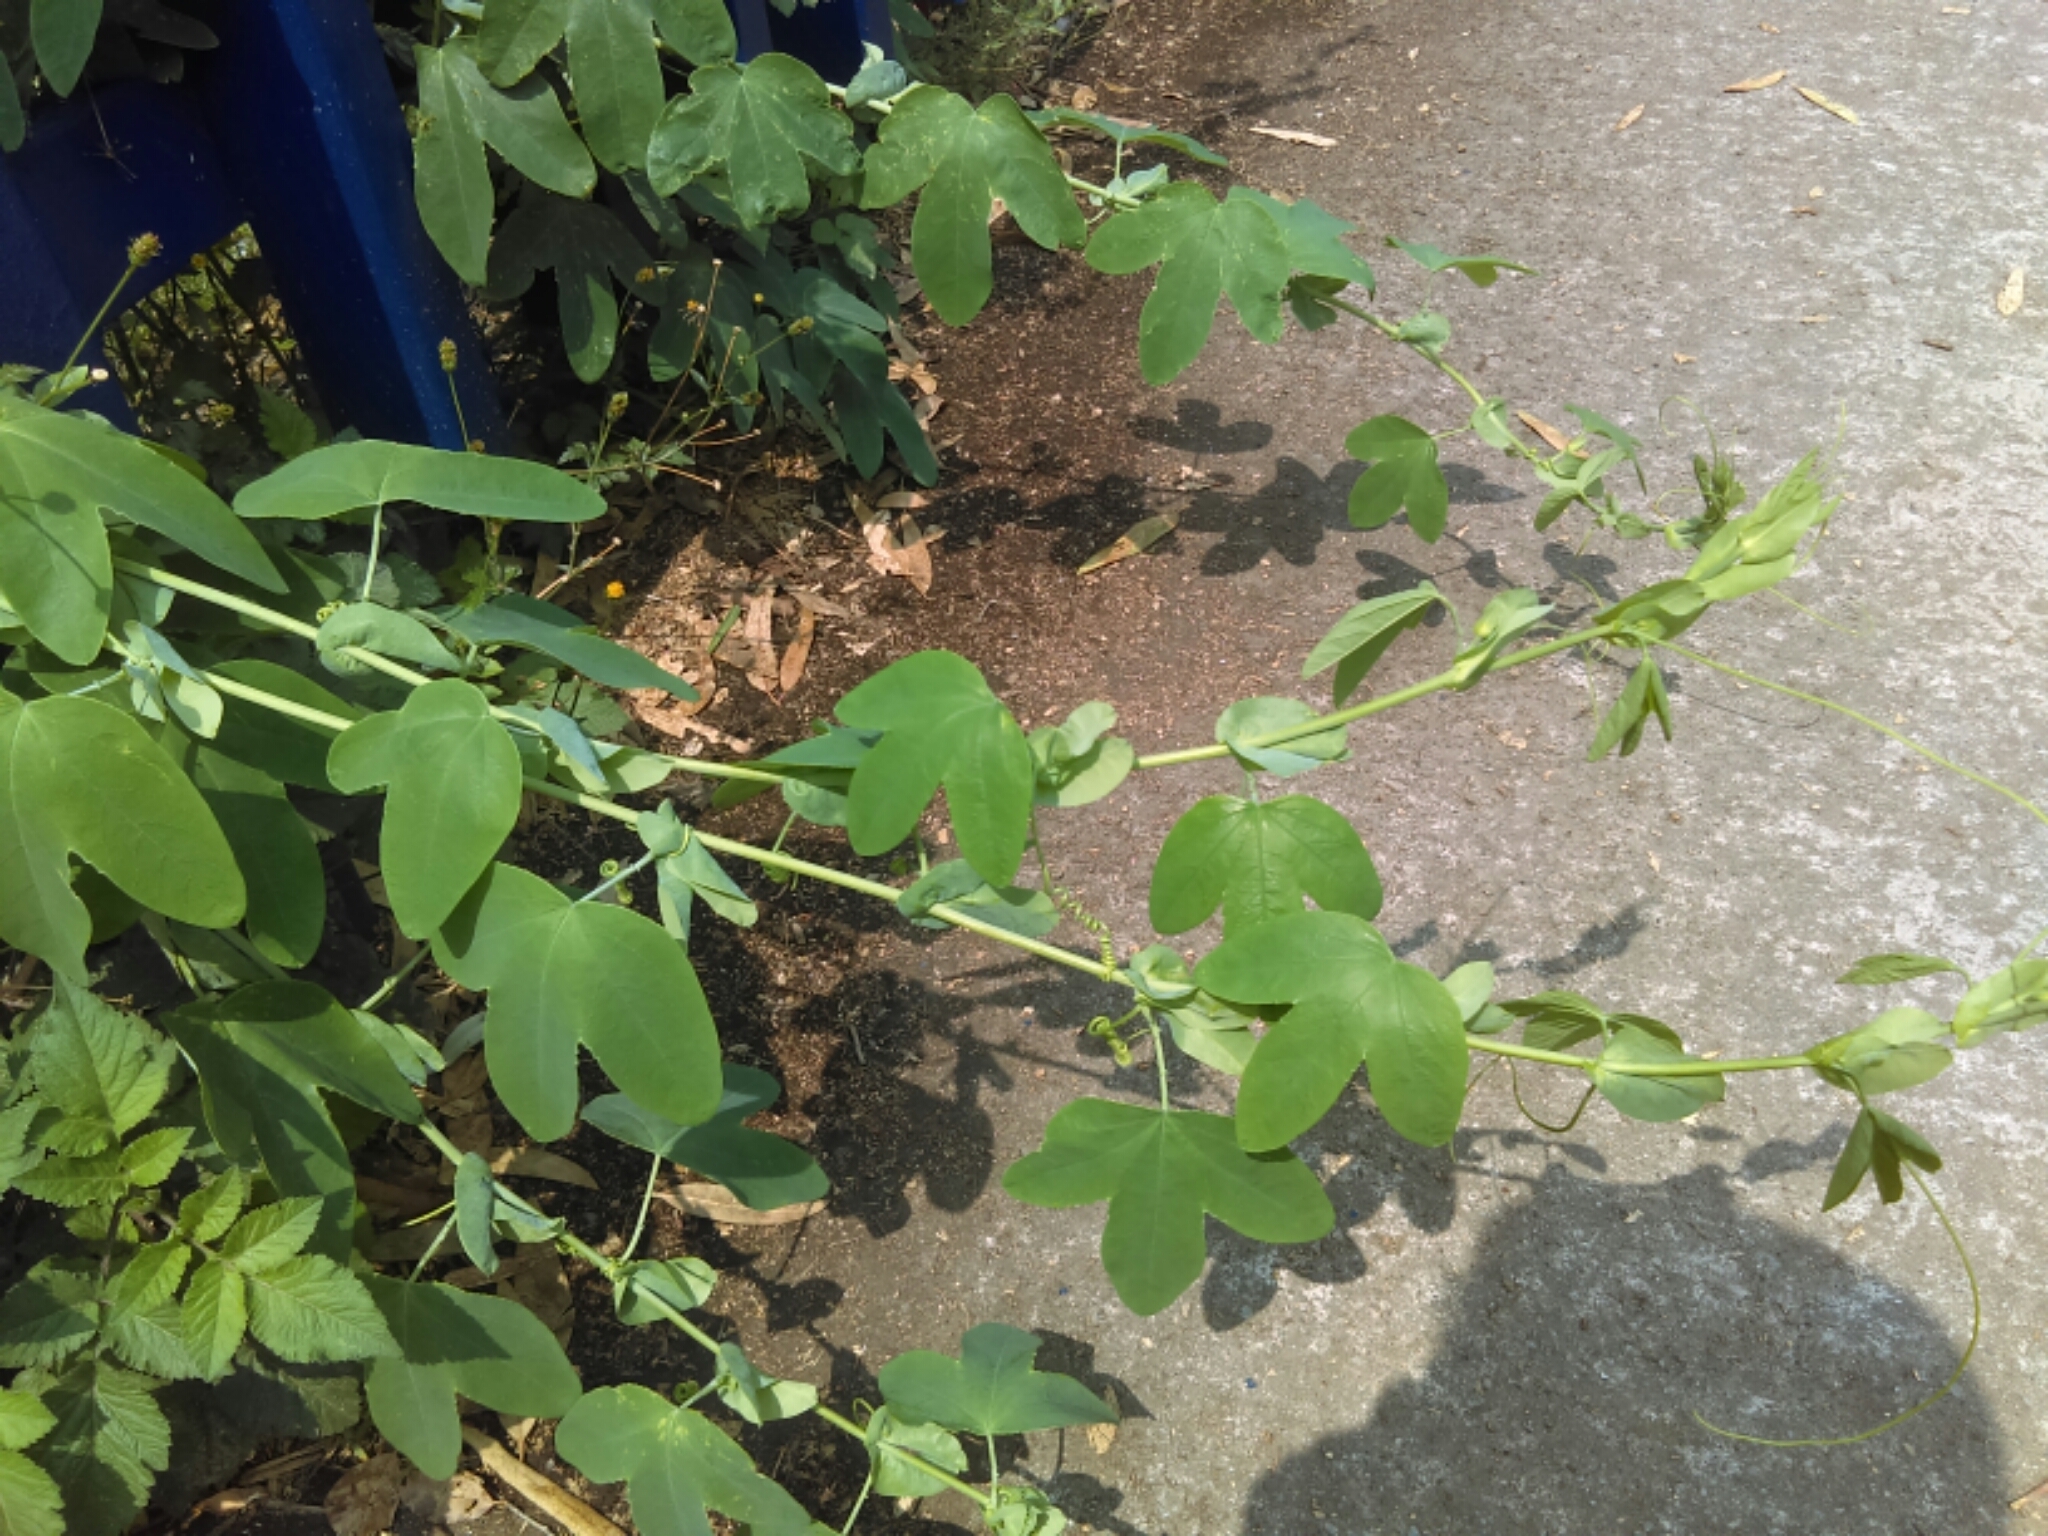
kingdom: Plantae
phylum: Tracheophyta
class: Magnoliopsida
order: Malpighiales
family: Passifloraceae
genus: Passiflora
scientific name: Passiflora subpeltata
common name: White passionflower
